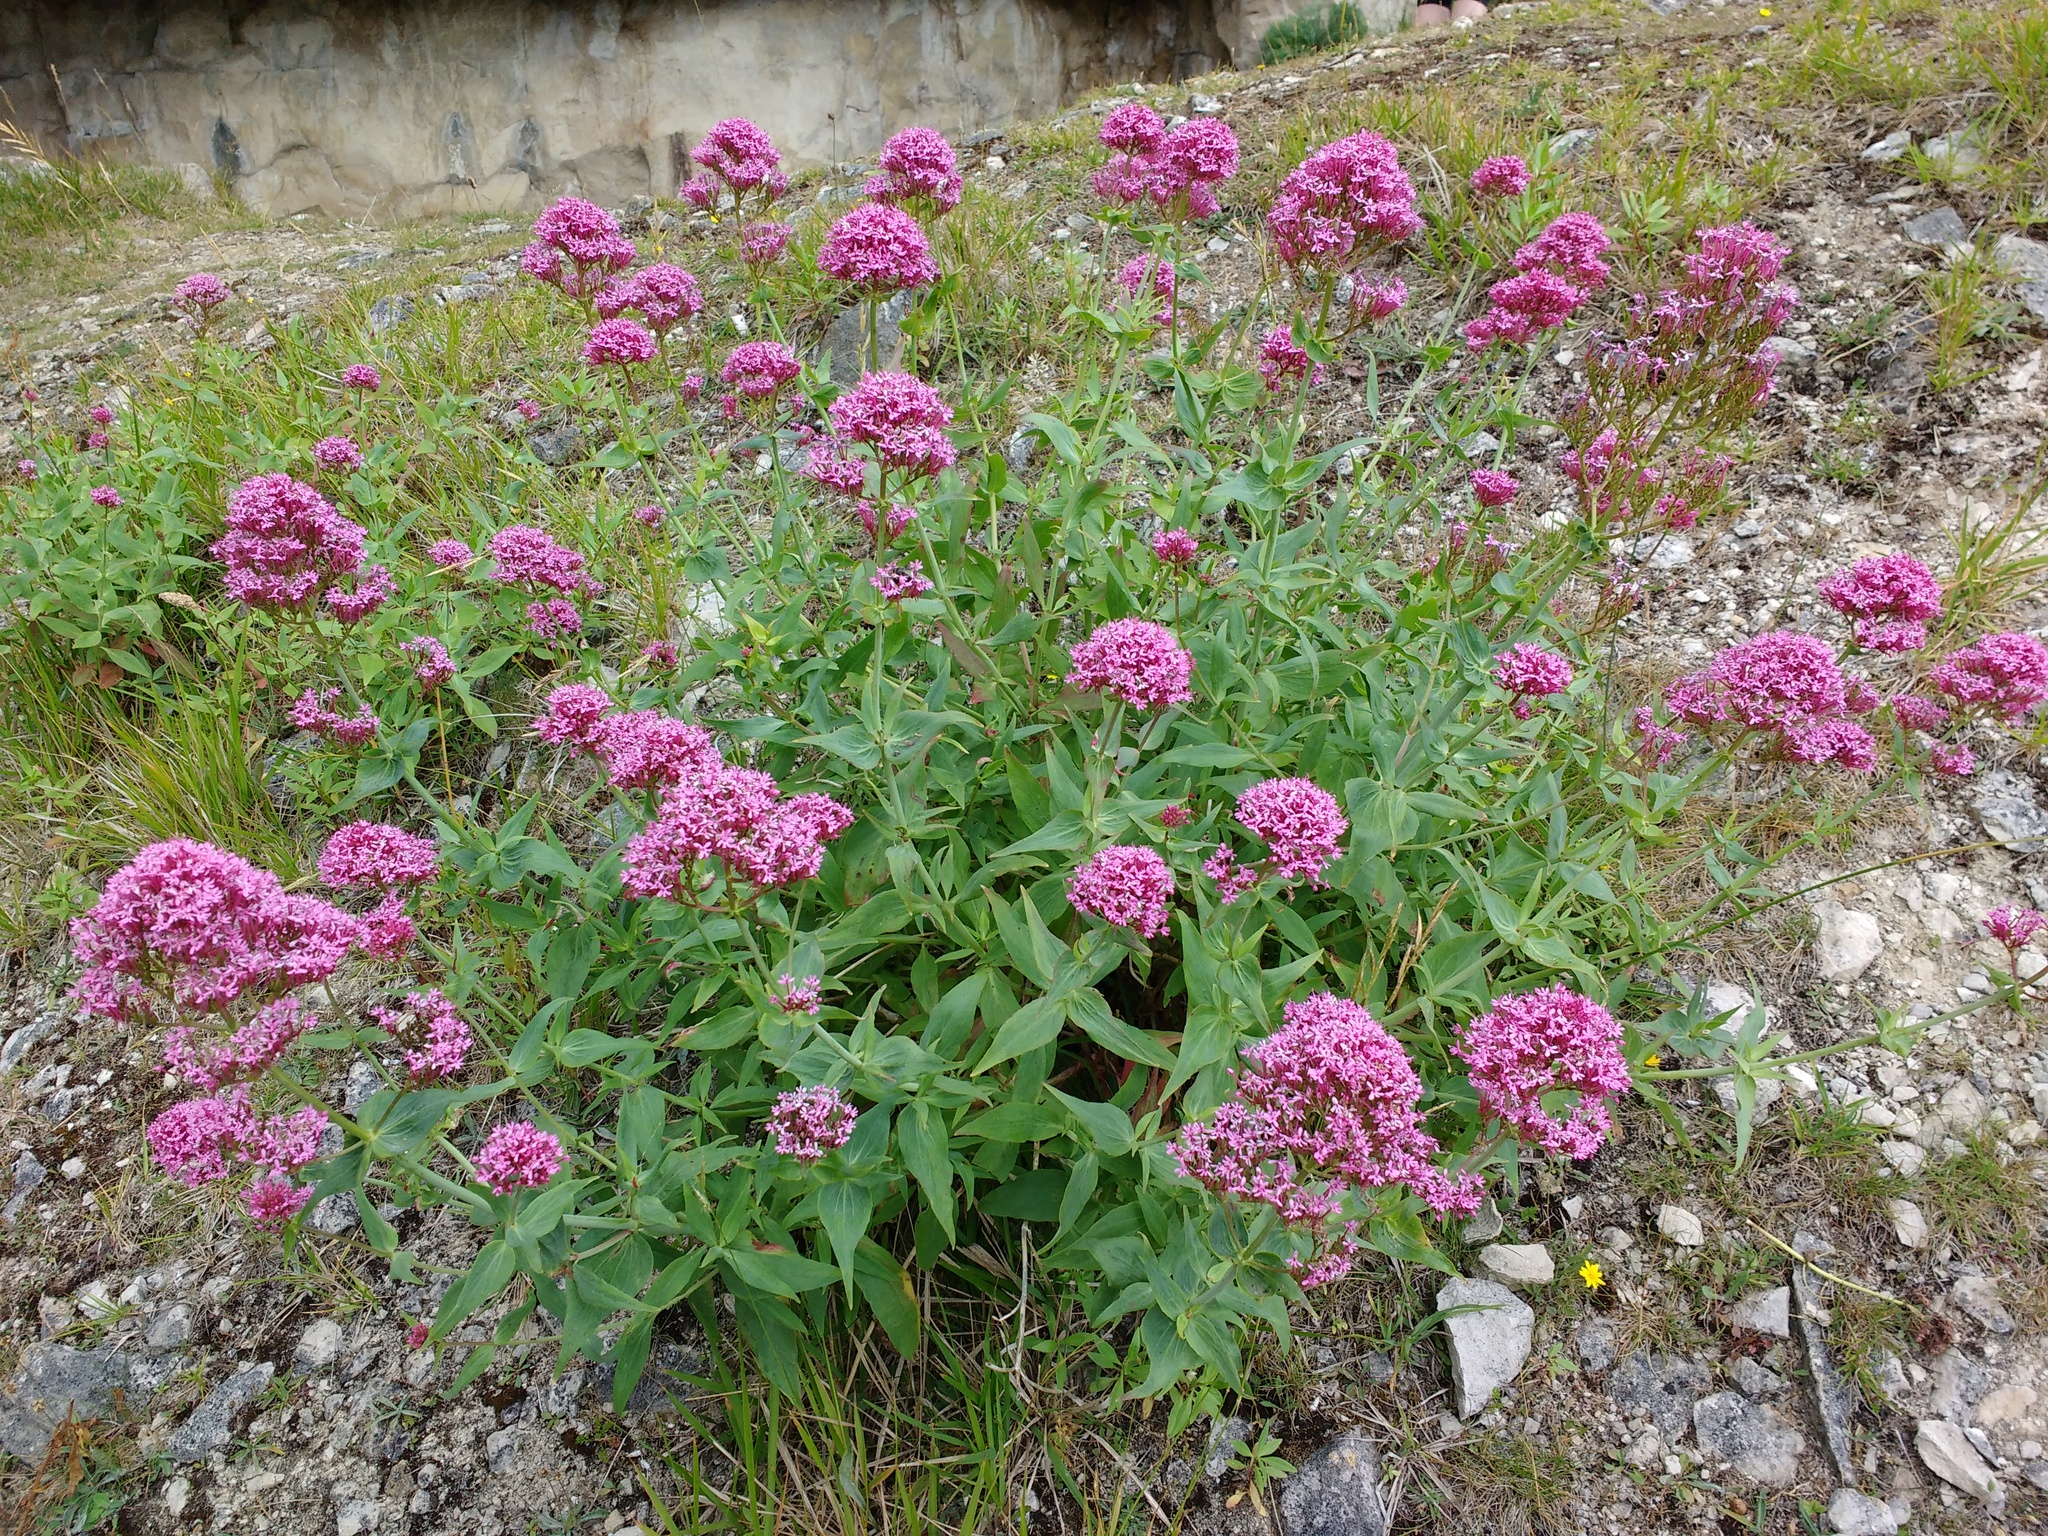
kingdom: Plantae
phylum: Tracheophyta
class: Magnoliopsida
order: Dipsacales
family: Caprifoliaceae
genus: Centranthus
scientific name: Centranthus ruber
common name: Red valerian
